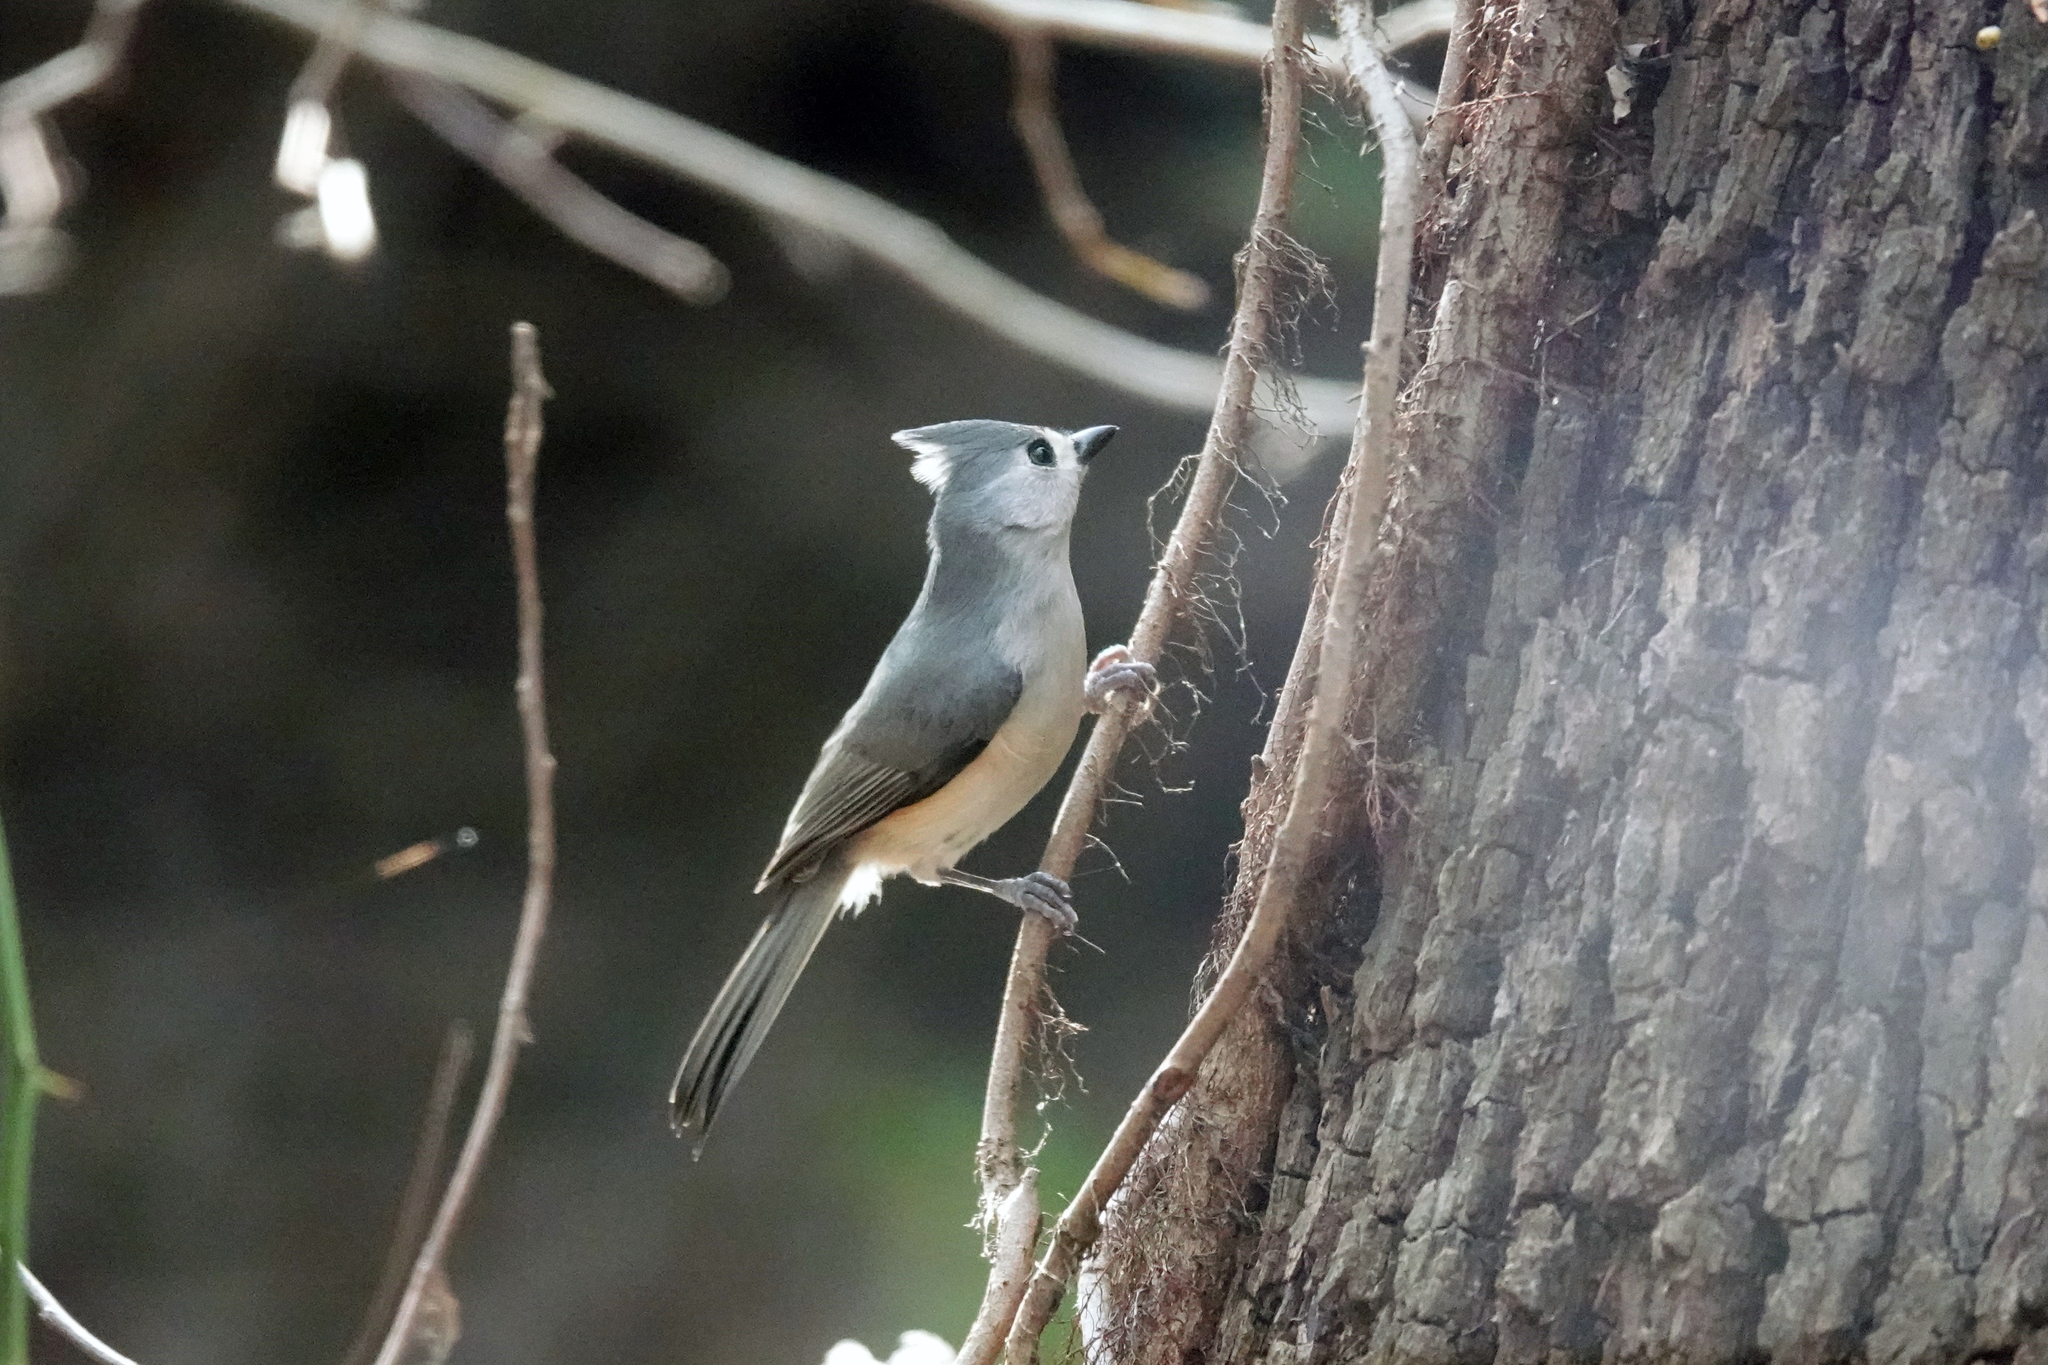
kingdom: Animalia
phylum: Chordata
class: Aves
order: Passeriformes
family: Paridae
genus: Baeolophus
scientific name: Baeolophus bicolor
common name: Tufted titmouse
